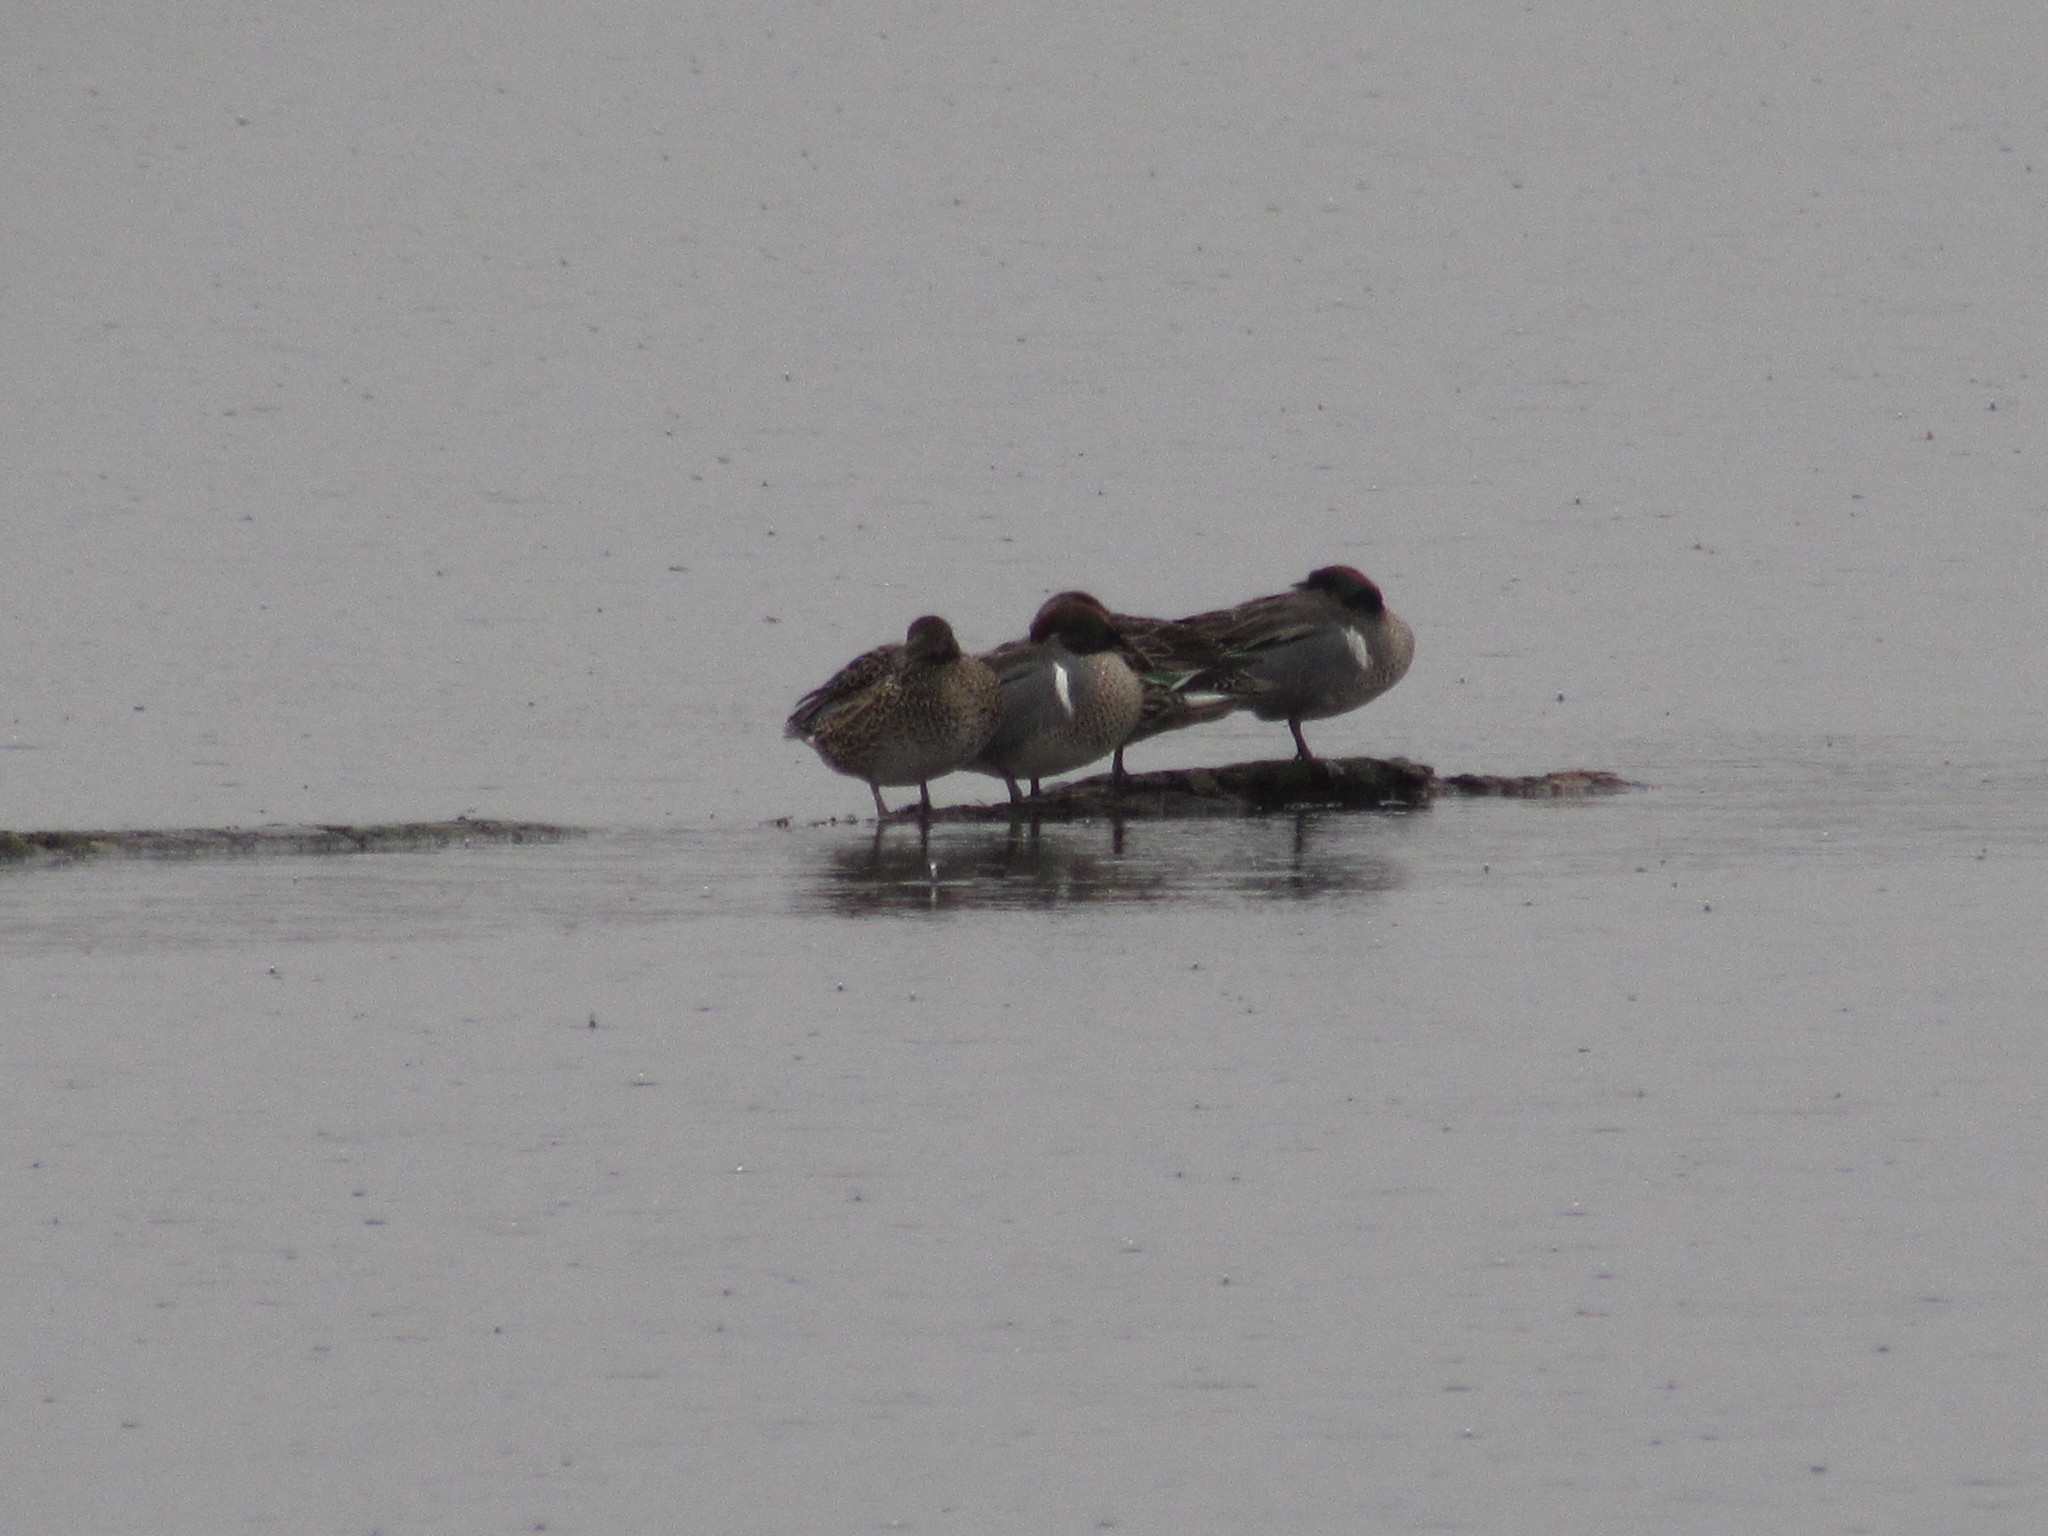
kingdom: Animalia
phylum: Chordata
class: Aves
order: Anseriformes
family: Anatidae
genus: Anas
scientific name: Anas crecca
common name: Eurasian teal
